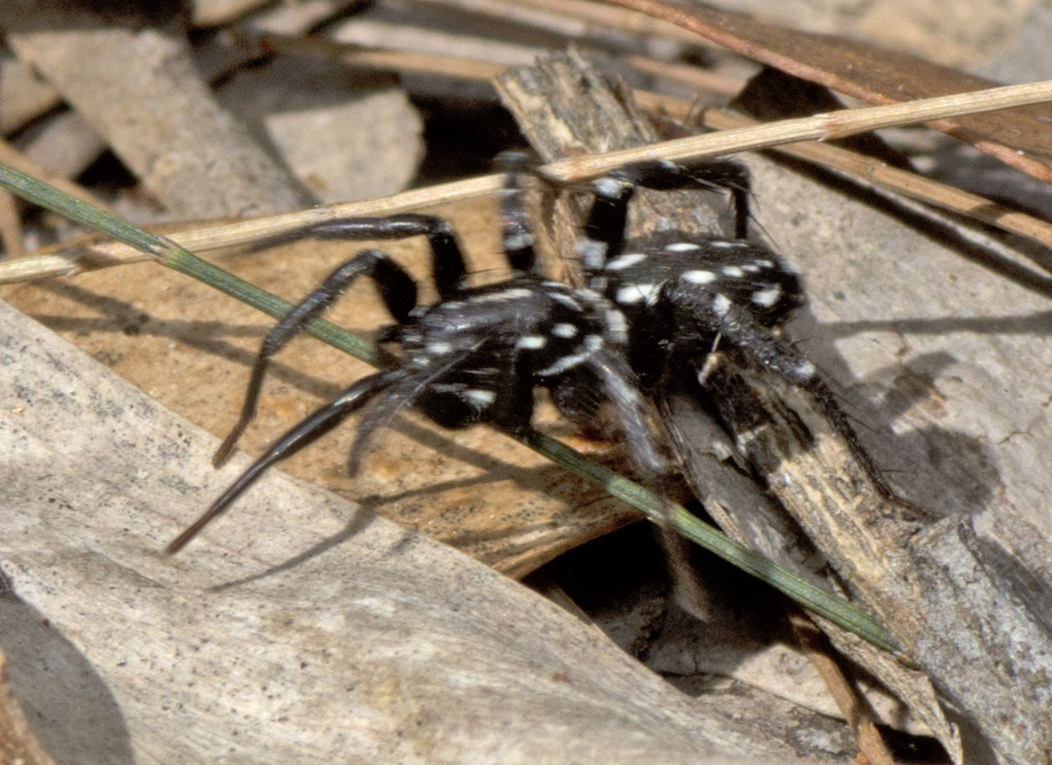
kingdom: Animalia
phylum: Arthropoda
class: Arachnida
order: Araneae
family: Corinnidae
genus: Nyssus
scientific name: Nyssus albopunctatus
